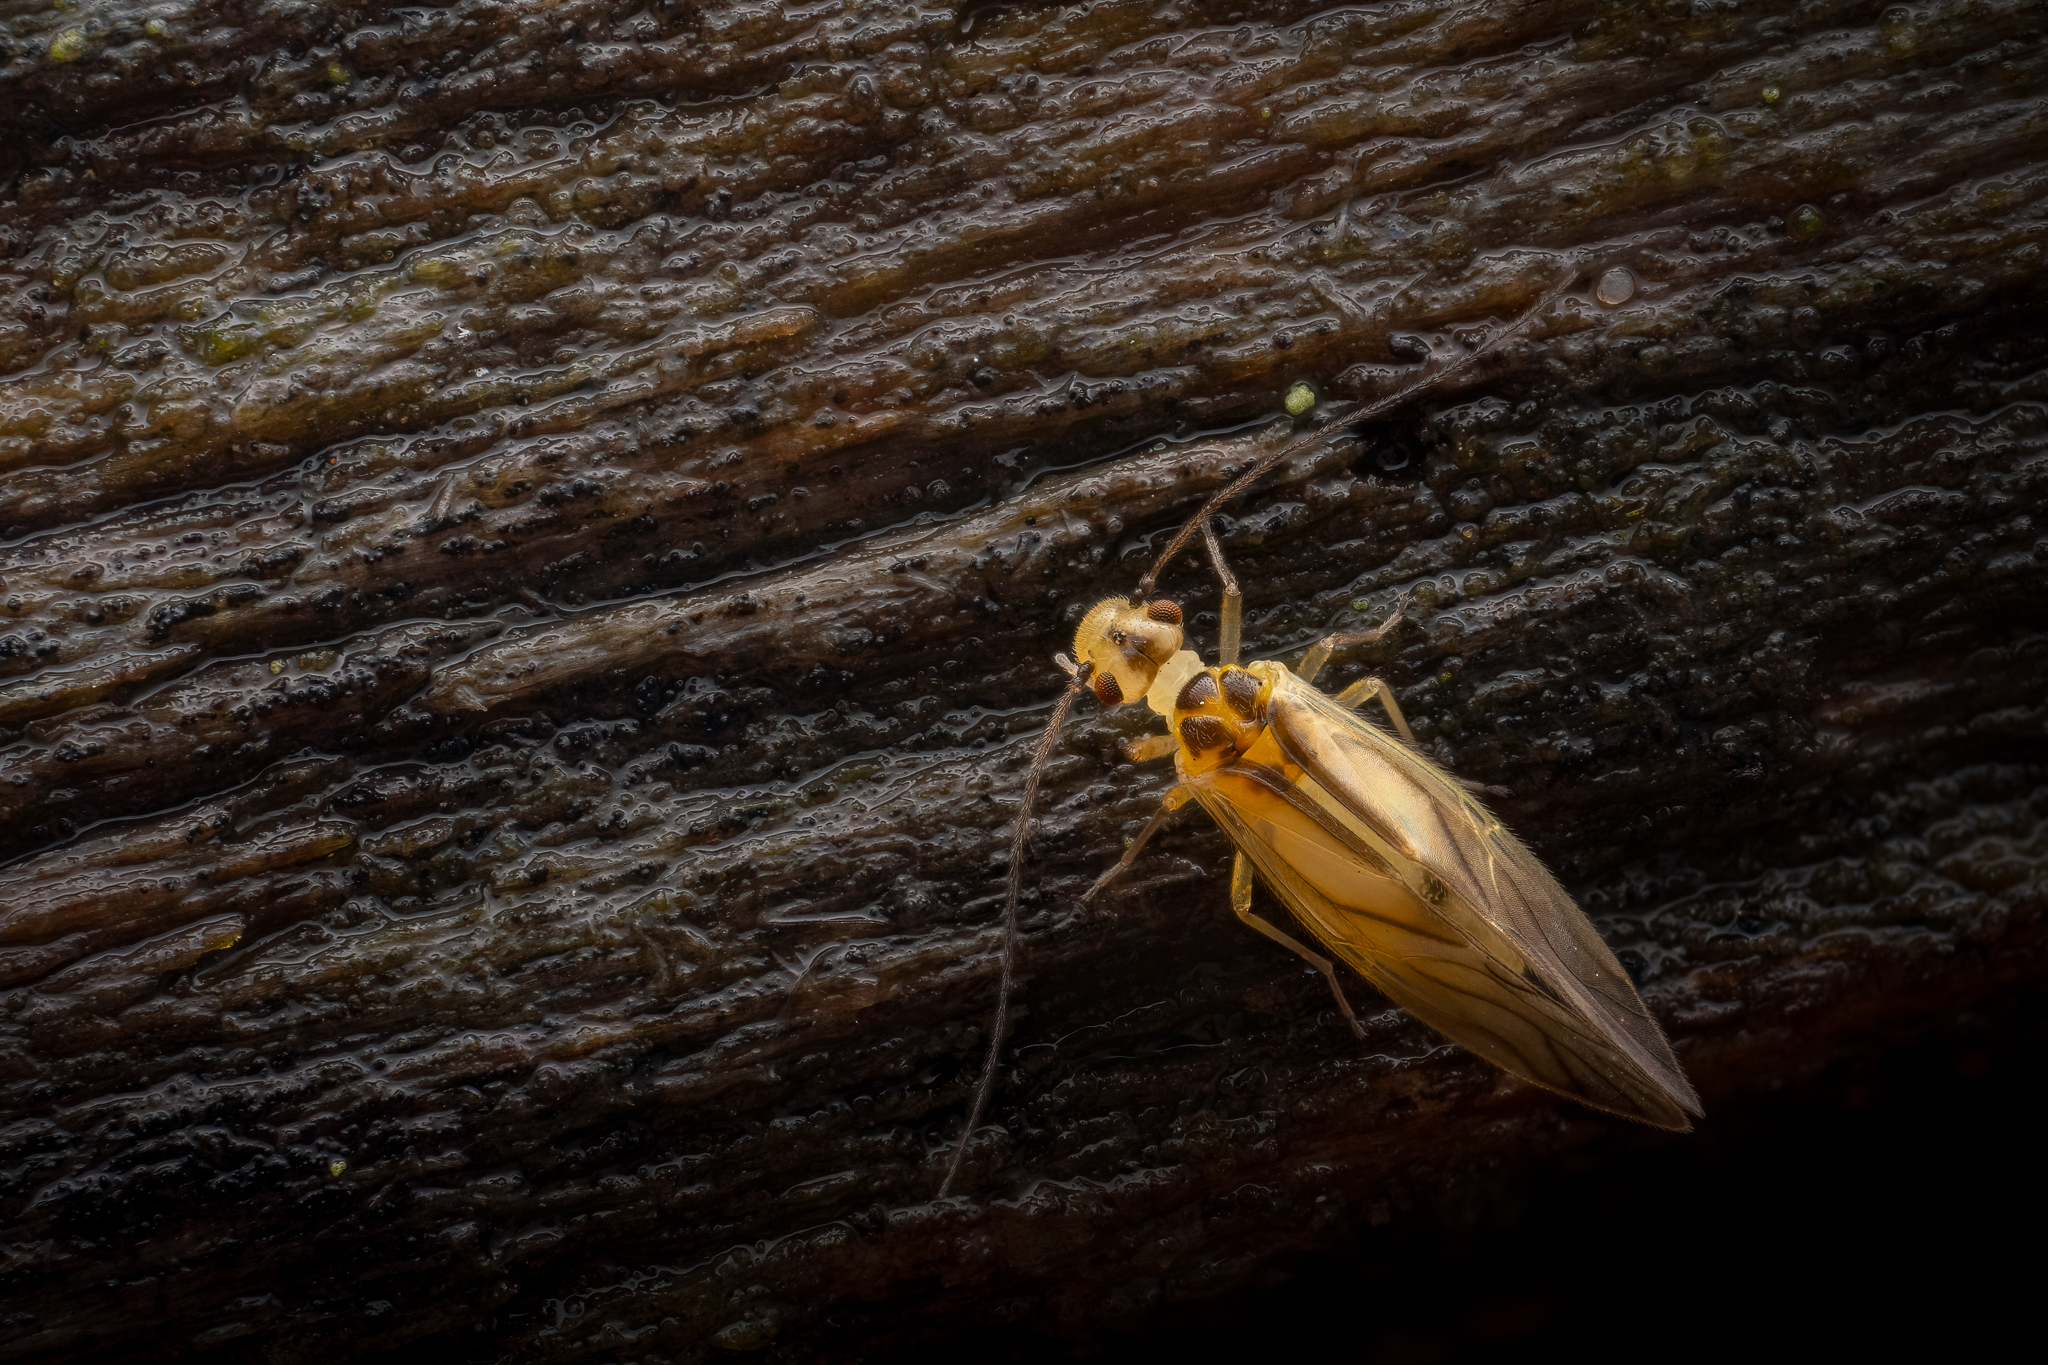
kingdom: Animalia
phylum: Arthropoda
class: Insecta
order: Psocodea
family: Caeciliusidae
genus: Valenzuela
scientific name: Valenzuela flavidus
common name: Yellow barklouse
